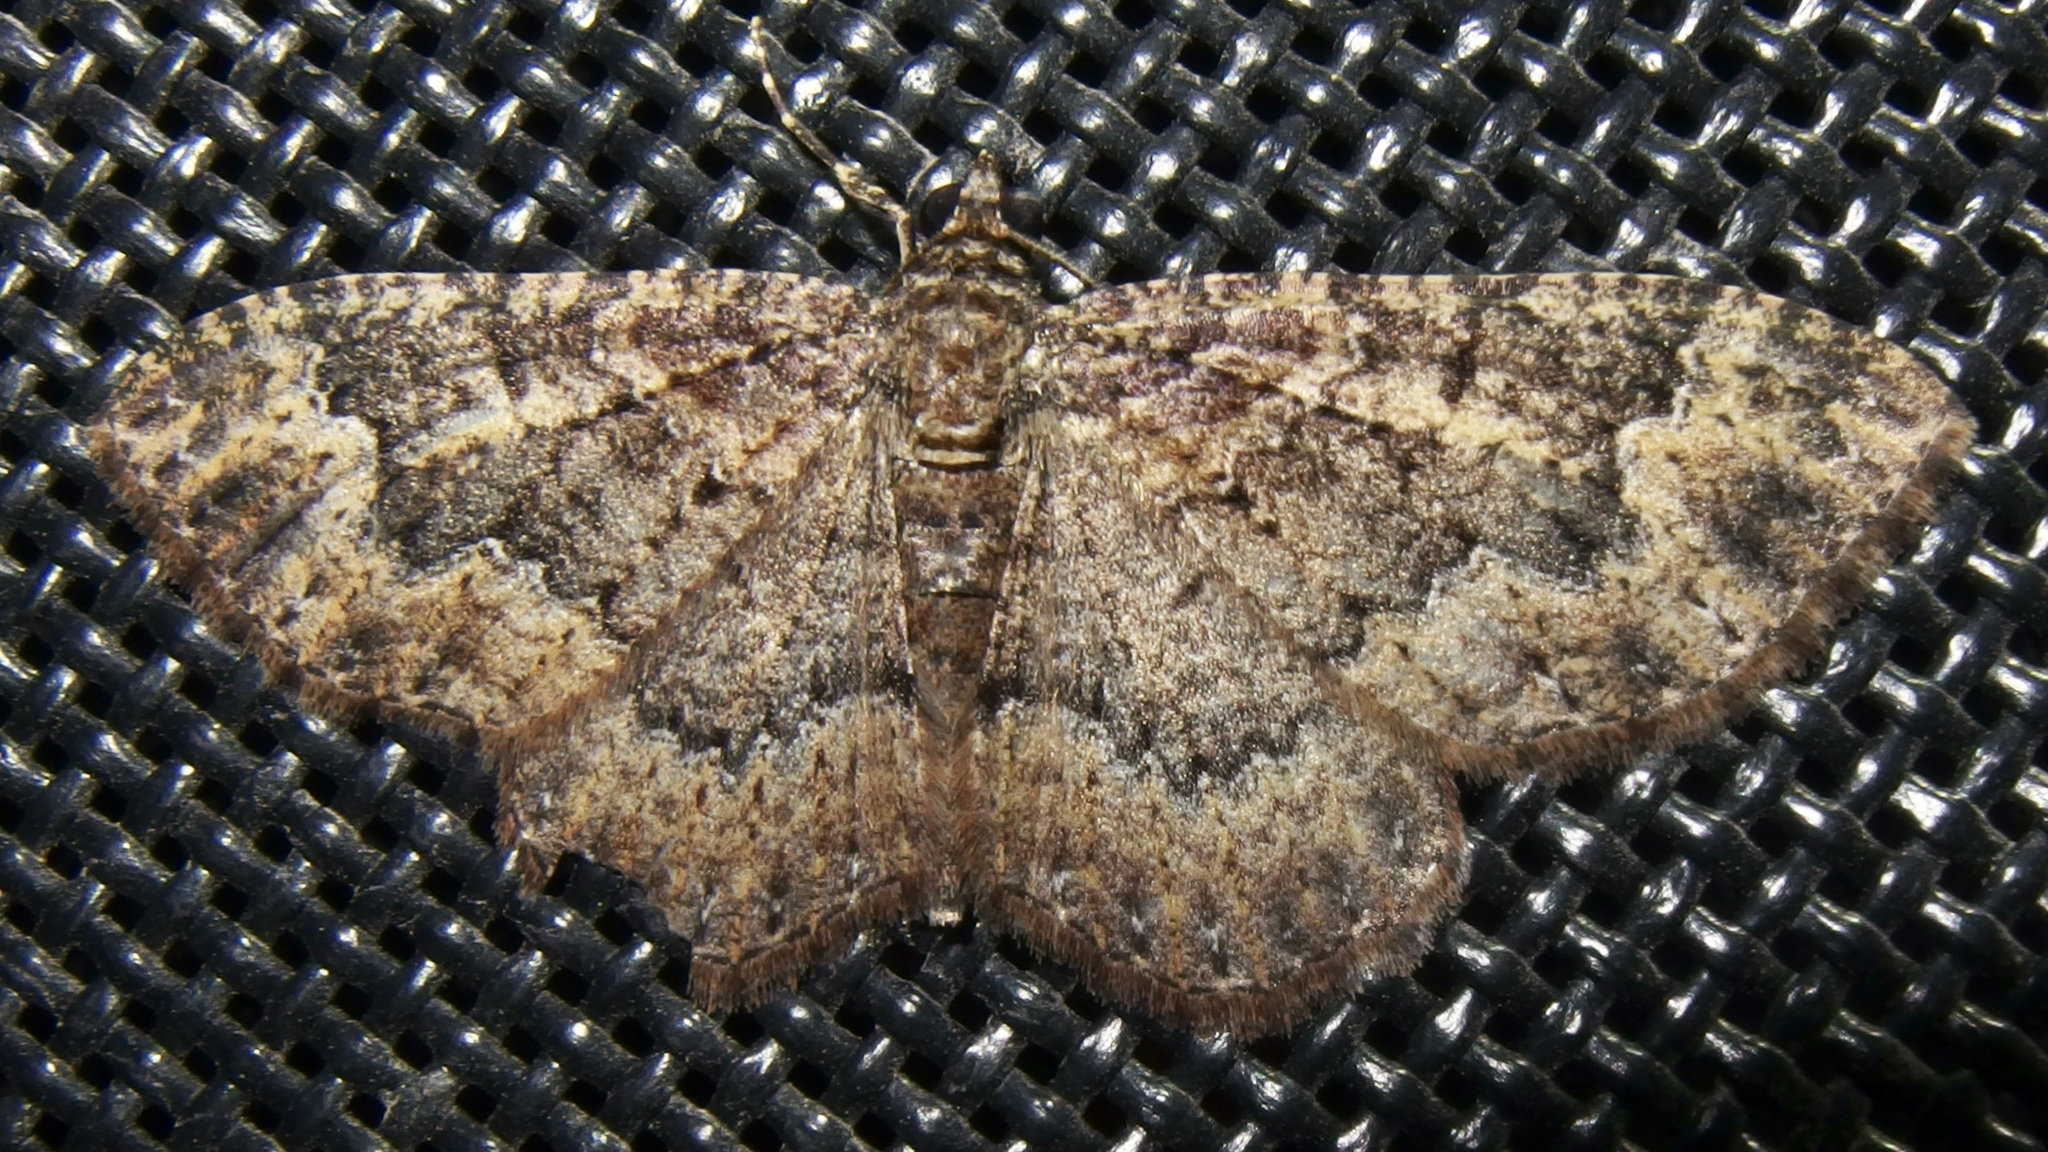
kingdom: Animalia
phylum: Arthropoda
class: Insecta
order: Lepidoptera
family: Geometridae
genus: Disclisioprocta
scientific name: Disclisioprocta stellata
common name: Somber carpet
